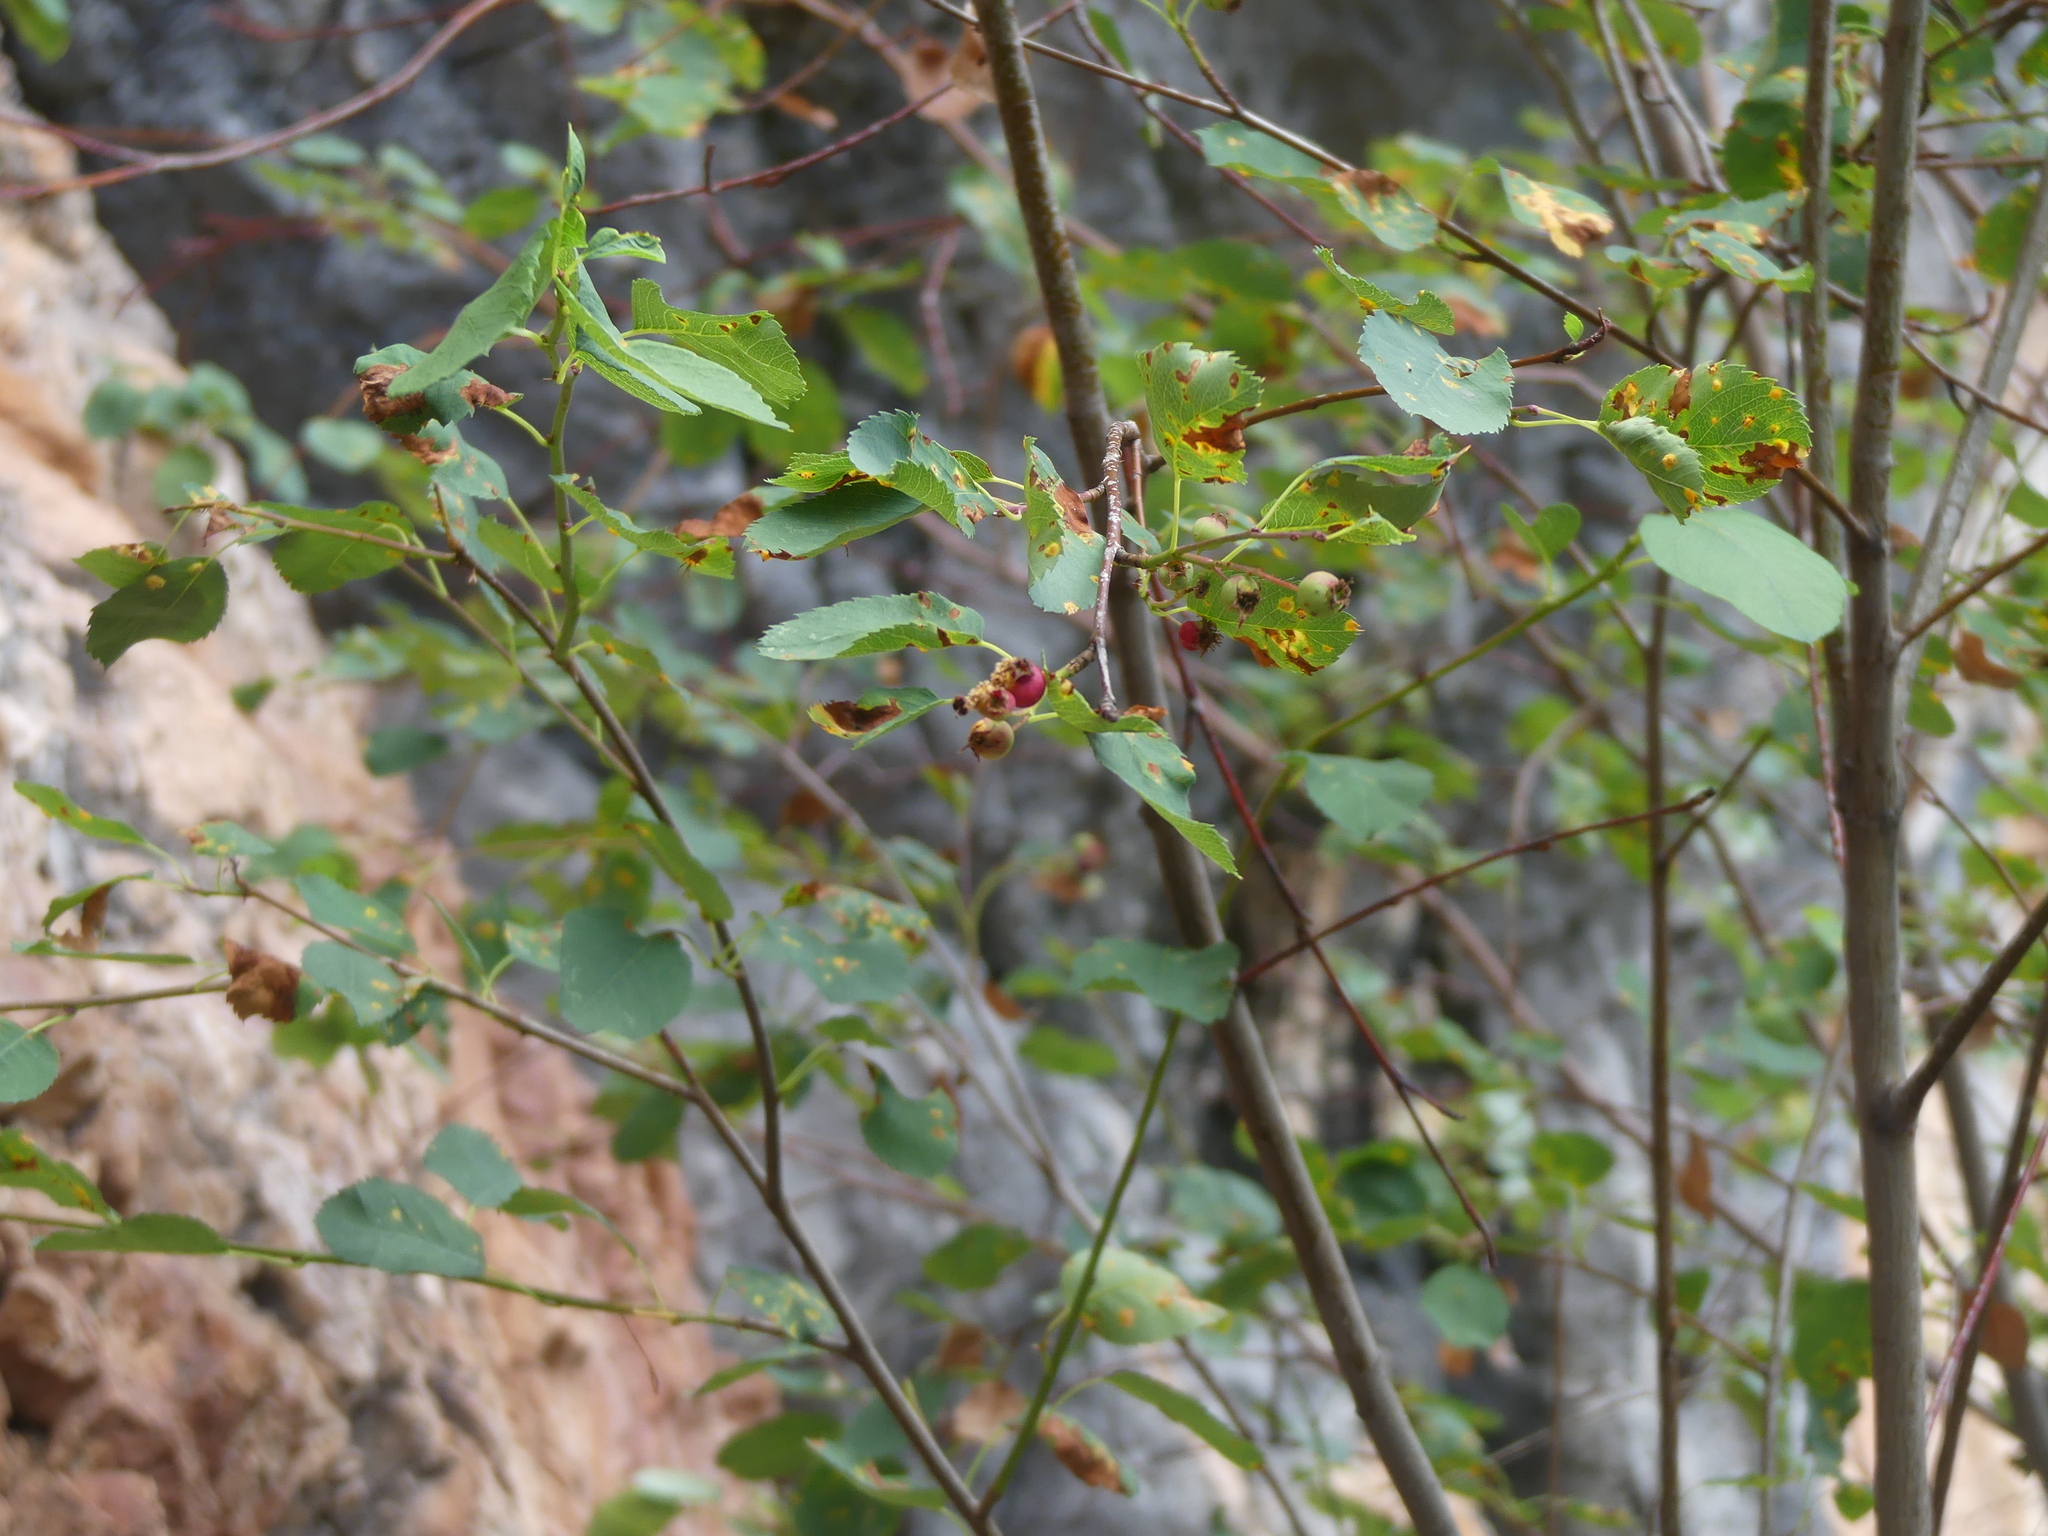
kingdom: Plantae
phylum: Tracheophyta
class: Magnoliopsida
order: Rosales
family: Rosaceae
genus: Amelanchier
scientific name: Amelanchier alnifolia
